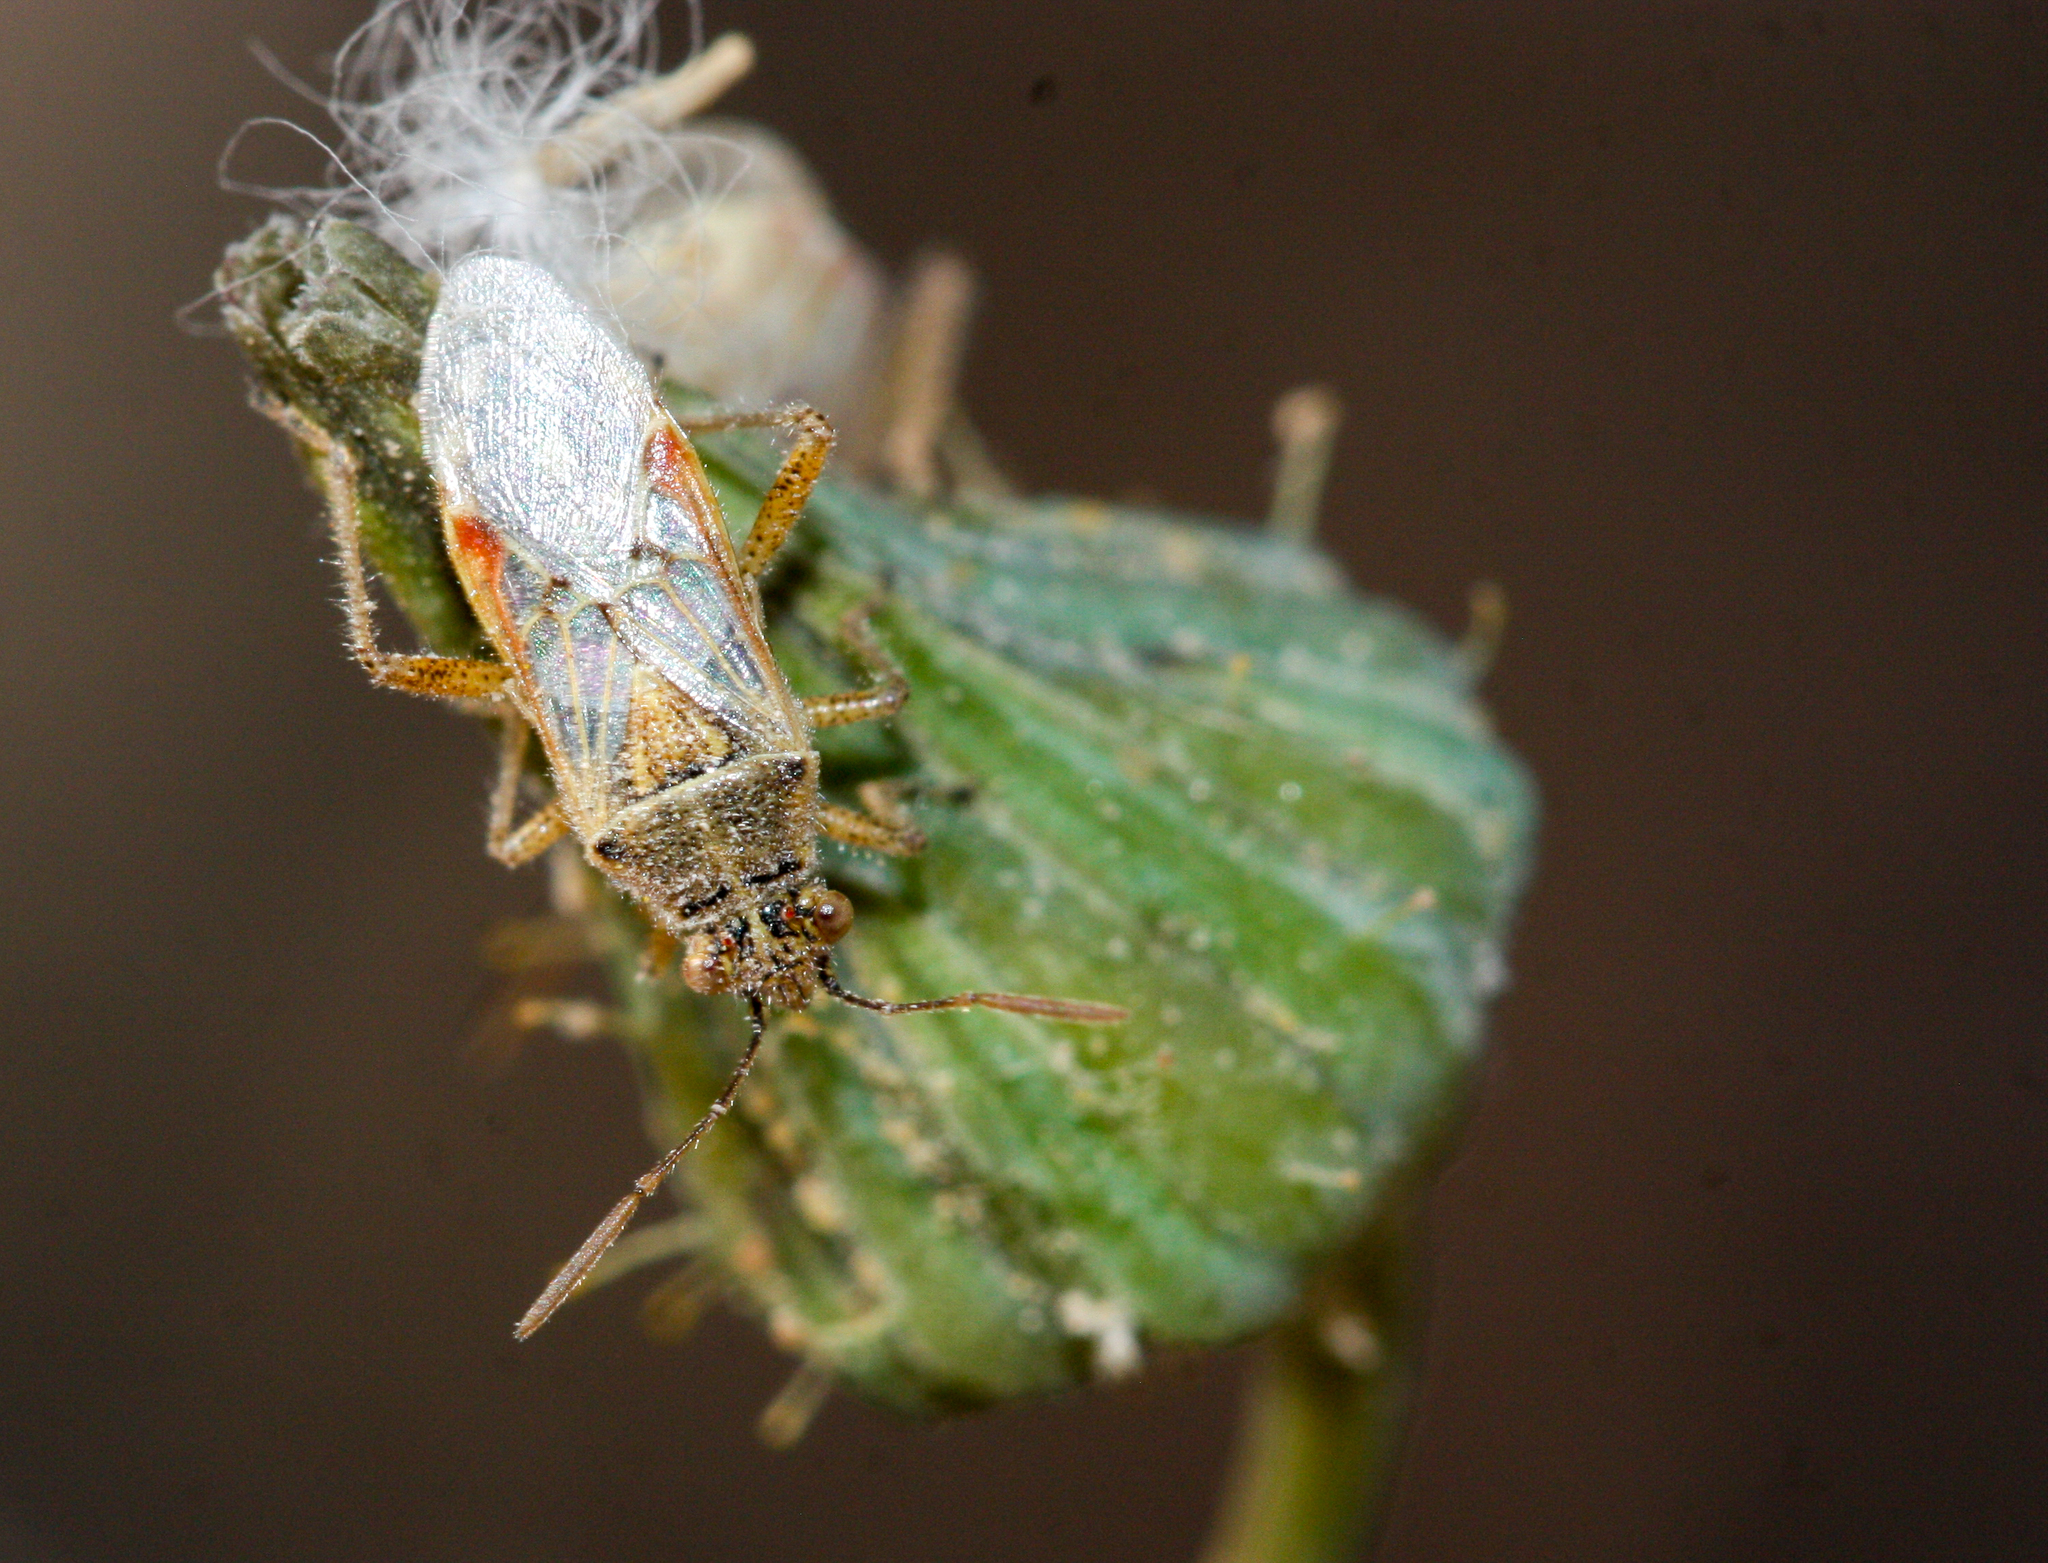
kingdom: Animalia
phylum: Arthropoda
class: Insecta
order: Hemiptera
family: Rhopalidae
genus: Liorhyssus
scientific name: Liorhyssus hyalinus
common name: Scentless plant bug
